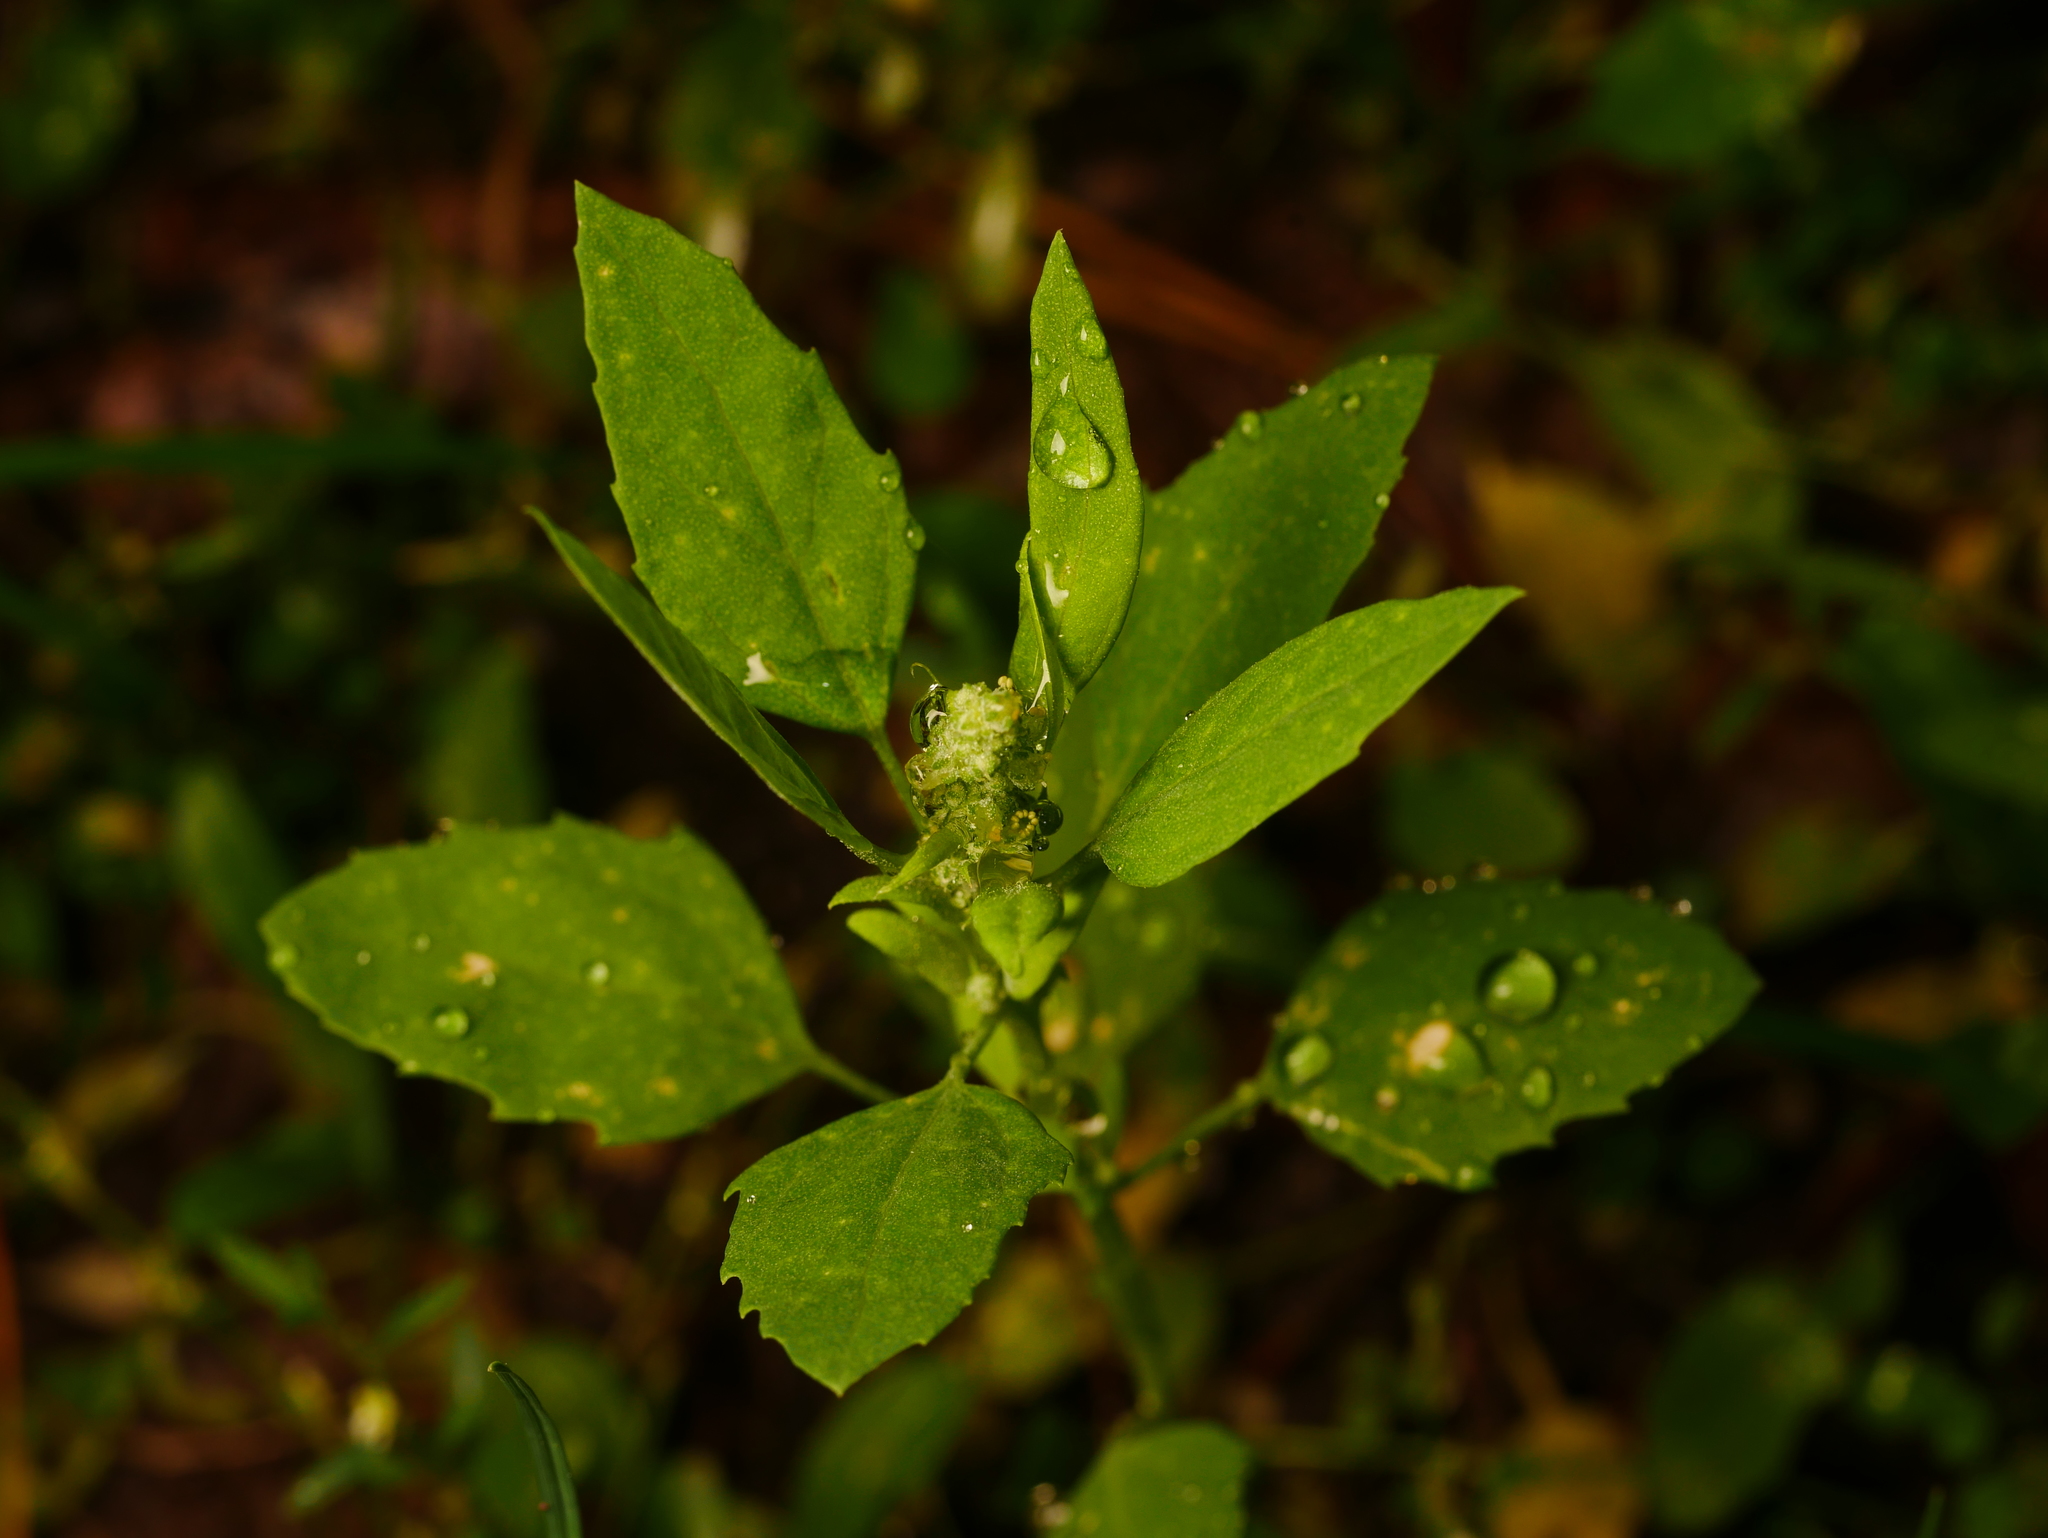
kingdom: Plantae
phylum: Tracheophyta
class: Magnoliopsida
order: Caryophyllales
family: Amaranthaceae
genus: Chenopodium
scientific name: Chenopodium album
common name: Fat-hen
